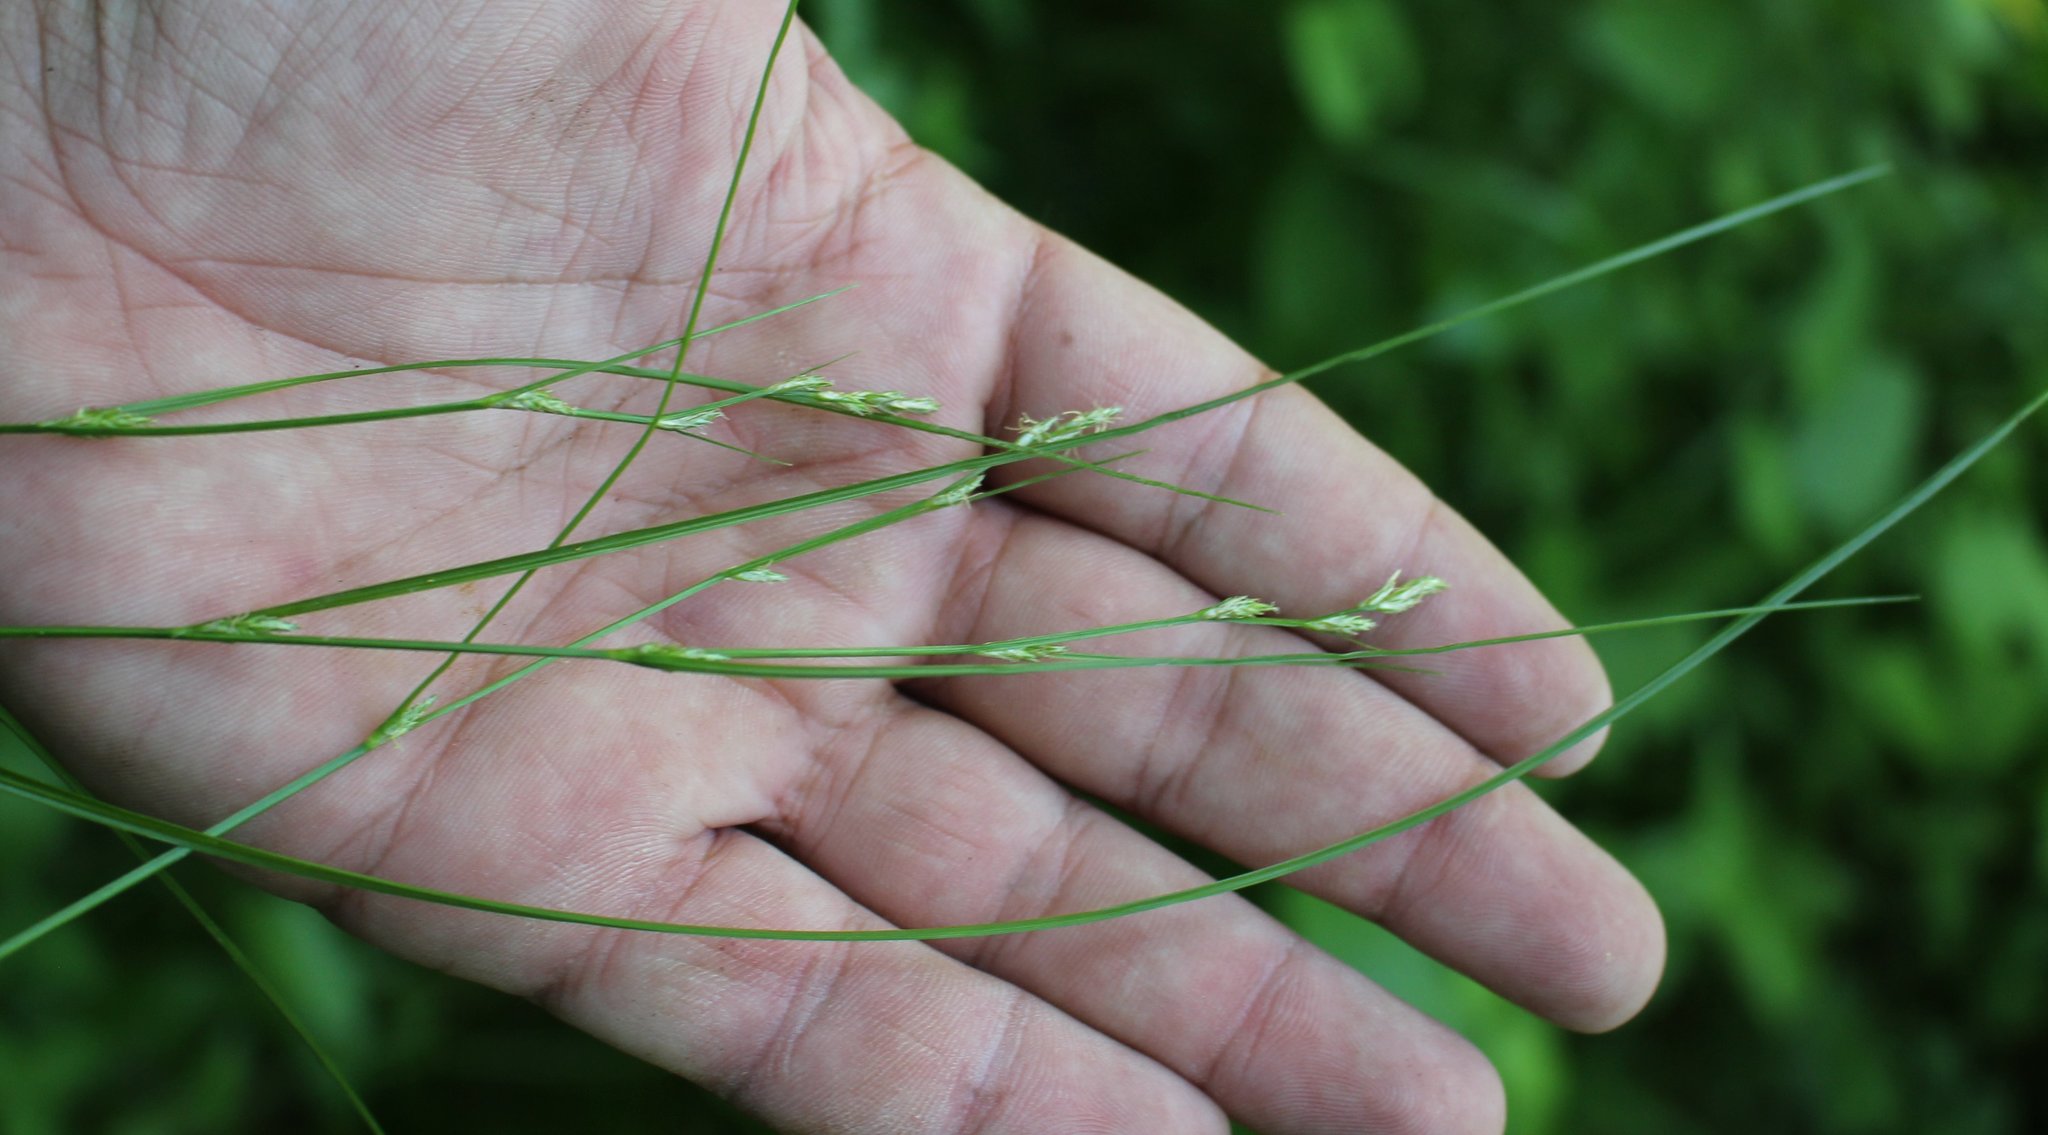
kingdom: Plantae
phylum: Tracheophyta
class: Liliopsida
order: Poales
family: Cyperaceae
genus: Carex
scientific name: Carex remota
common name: Remote sedge
